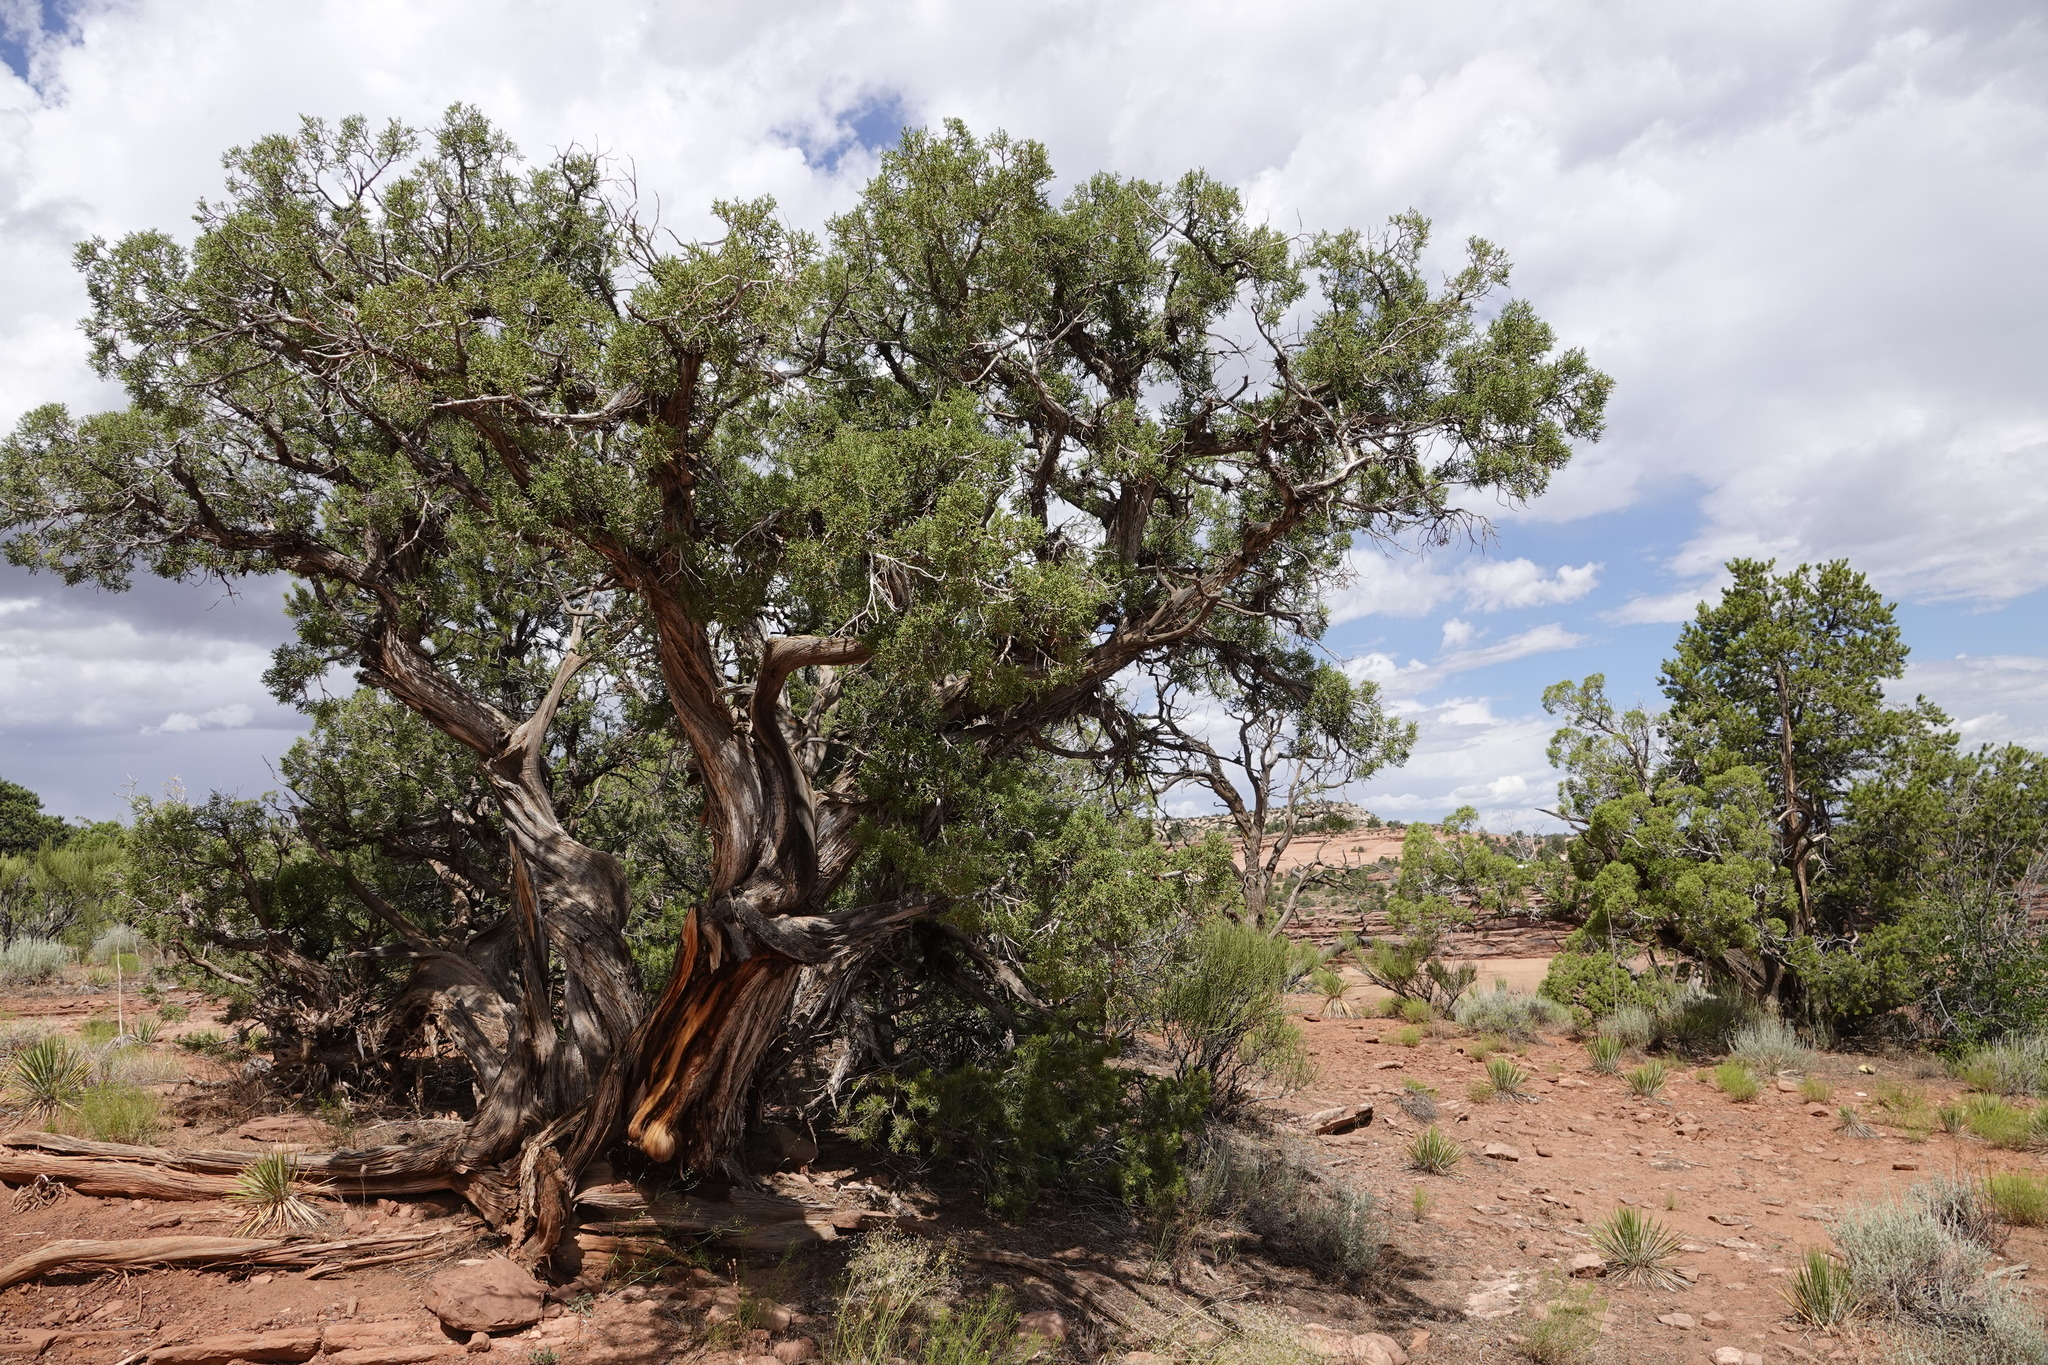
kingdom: Plantae
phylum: Tracheophyta
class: Pinopsida
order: Pinales
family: Cupressaceae
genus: Juniperus
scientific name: Juniperus osteosperma
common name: Utah juniper
